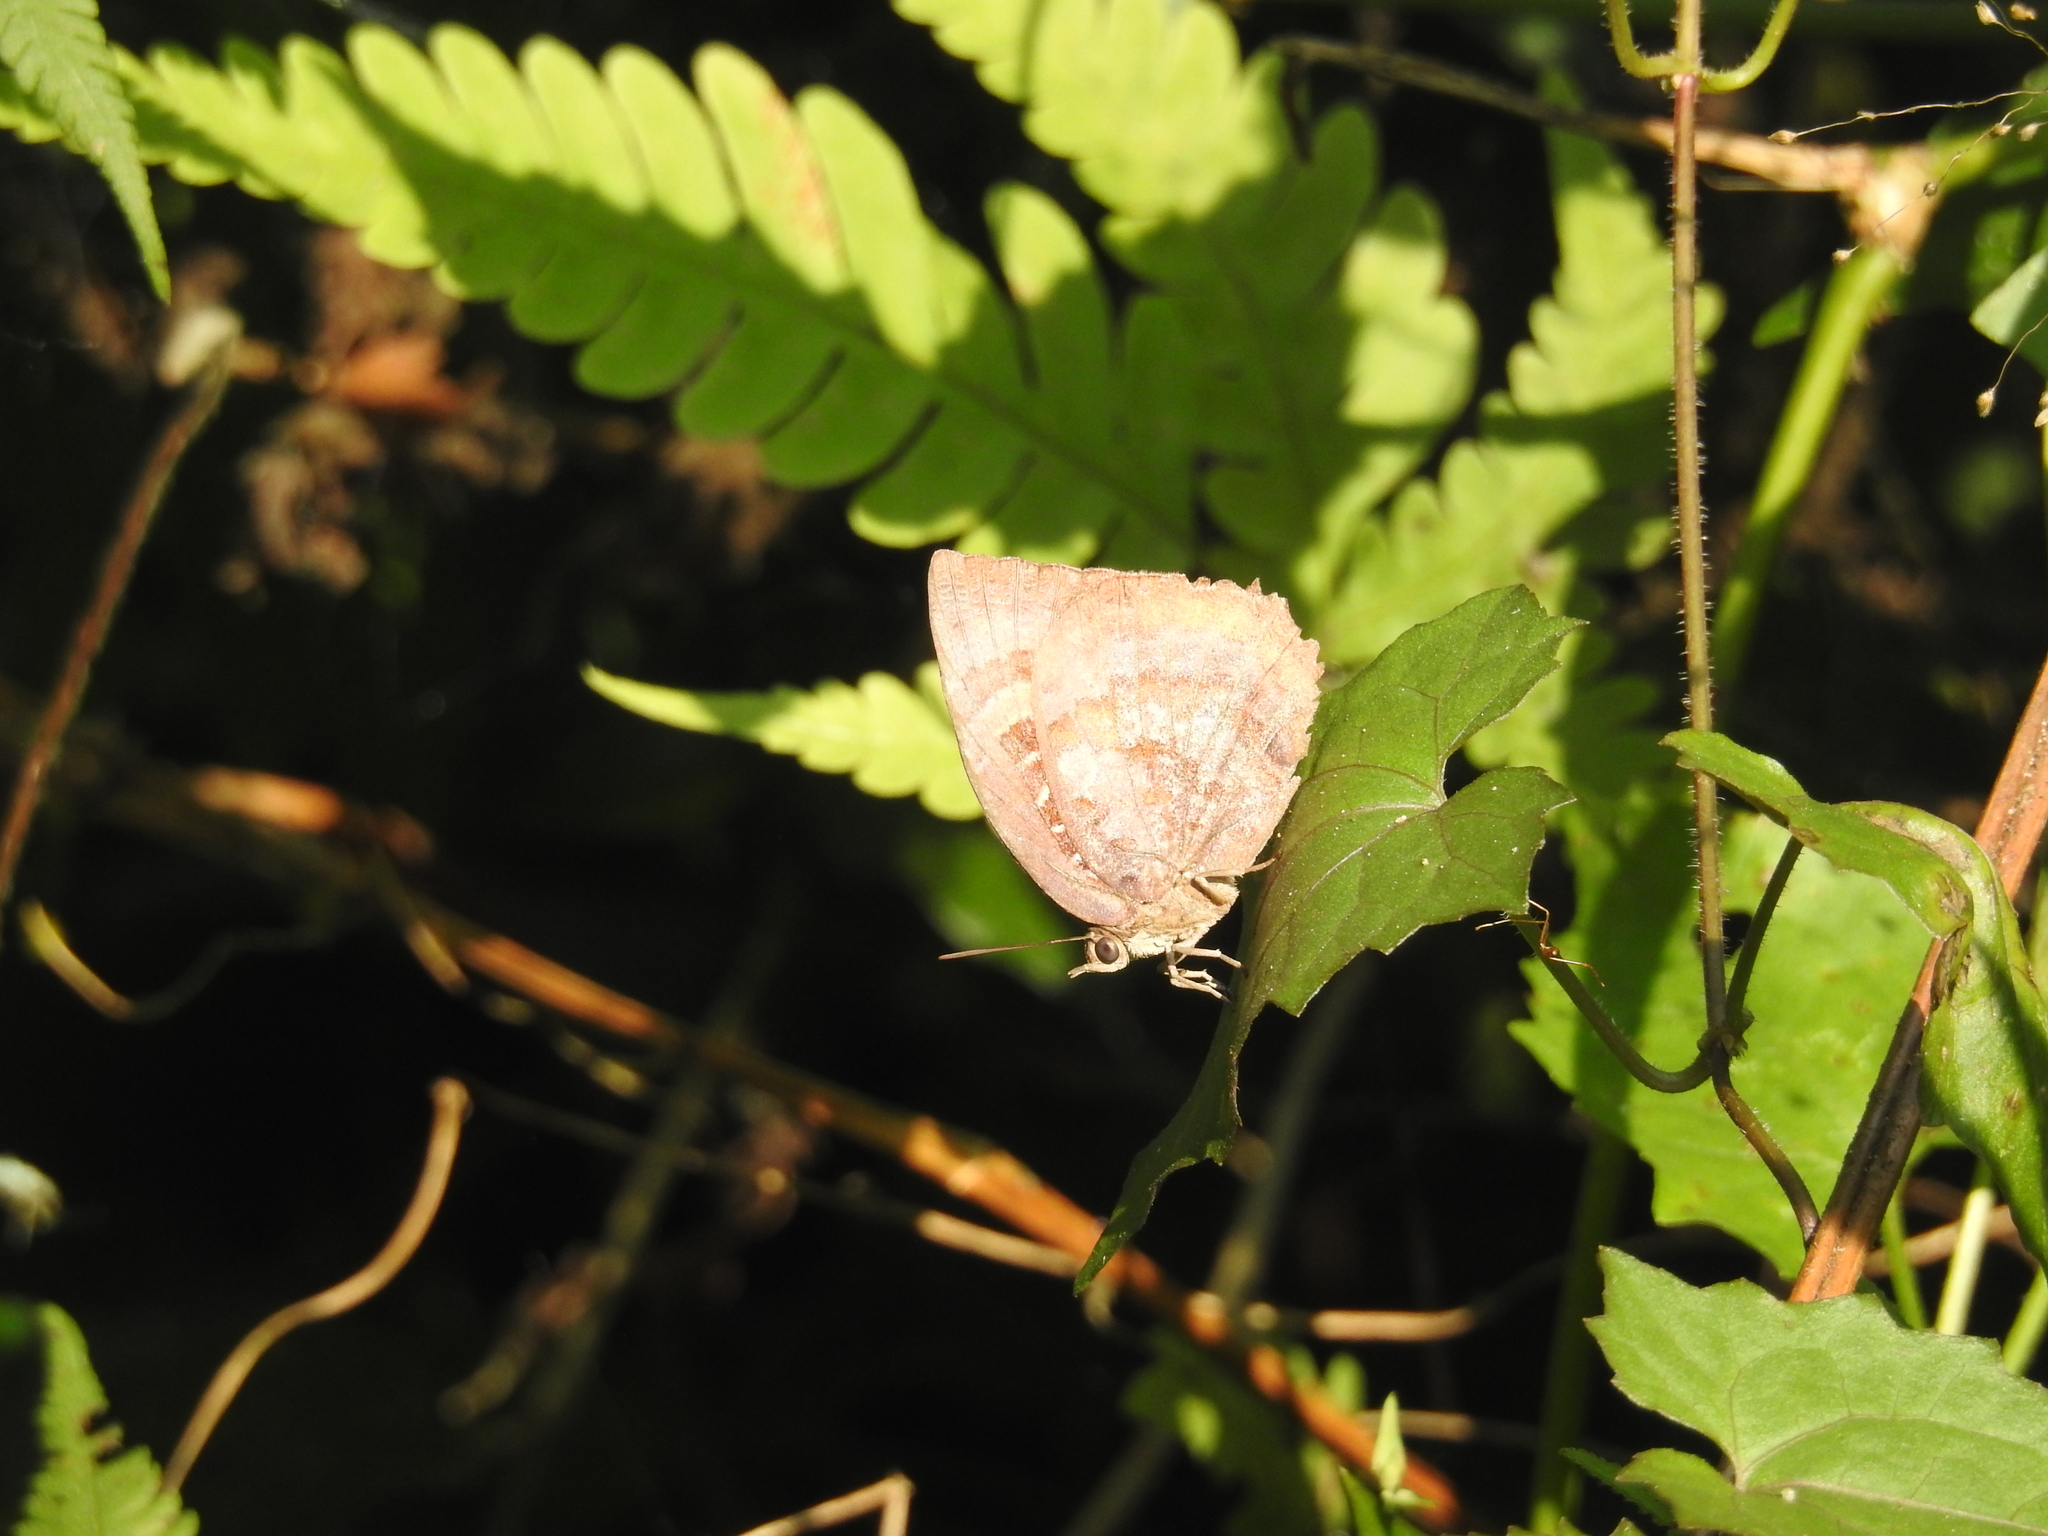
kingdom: Animalia
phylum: Arthropoda
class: Insecta
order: Lepidoptera
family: Lycaenidae
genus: Arhopala
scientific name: Arhopala centaurus
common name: Dull oak-blue
